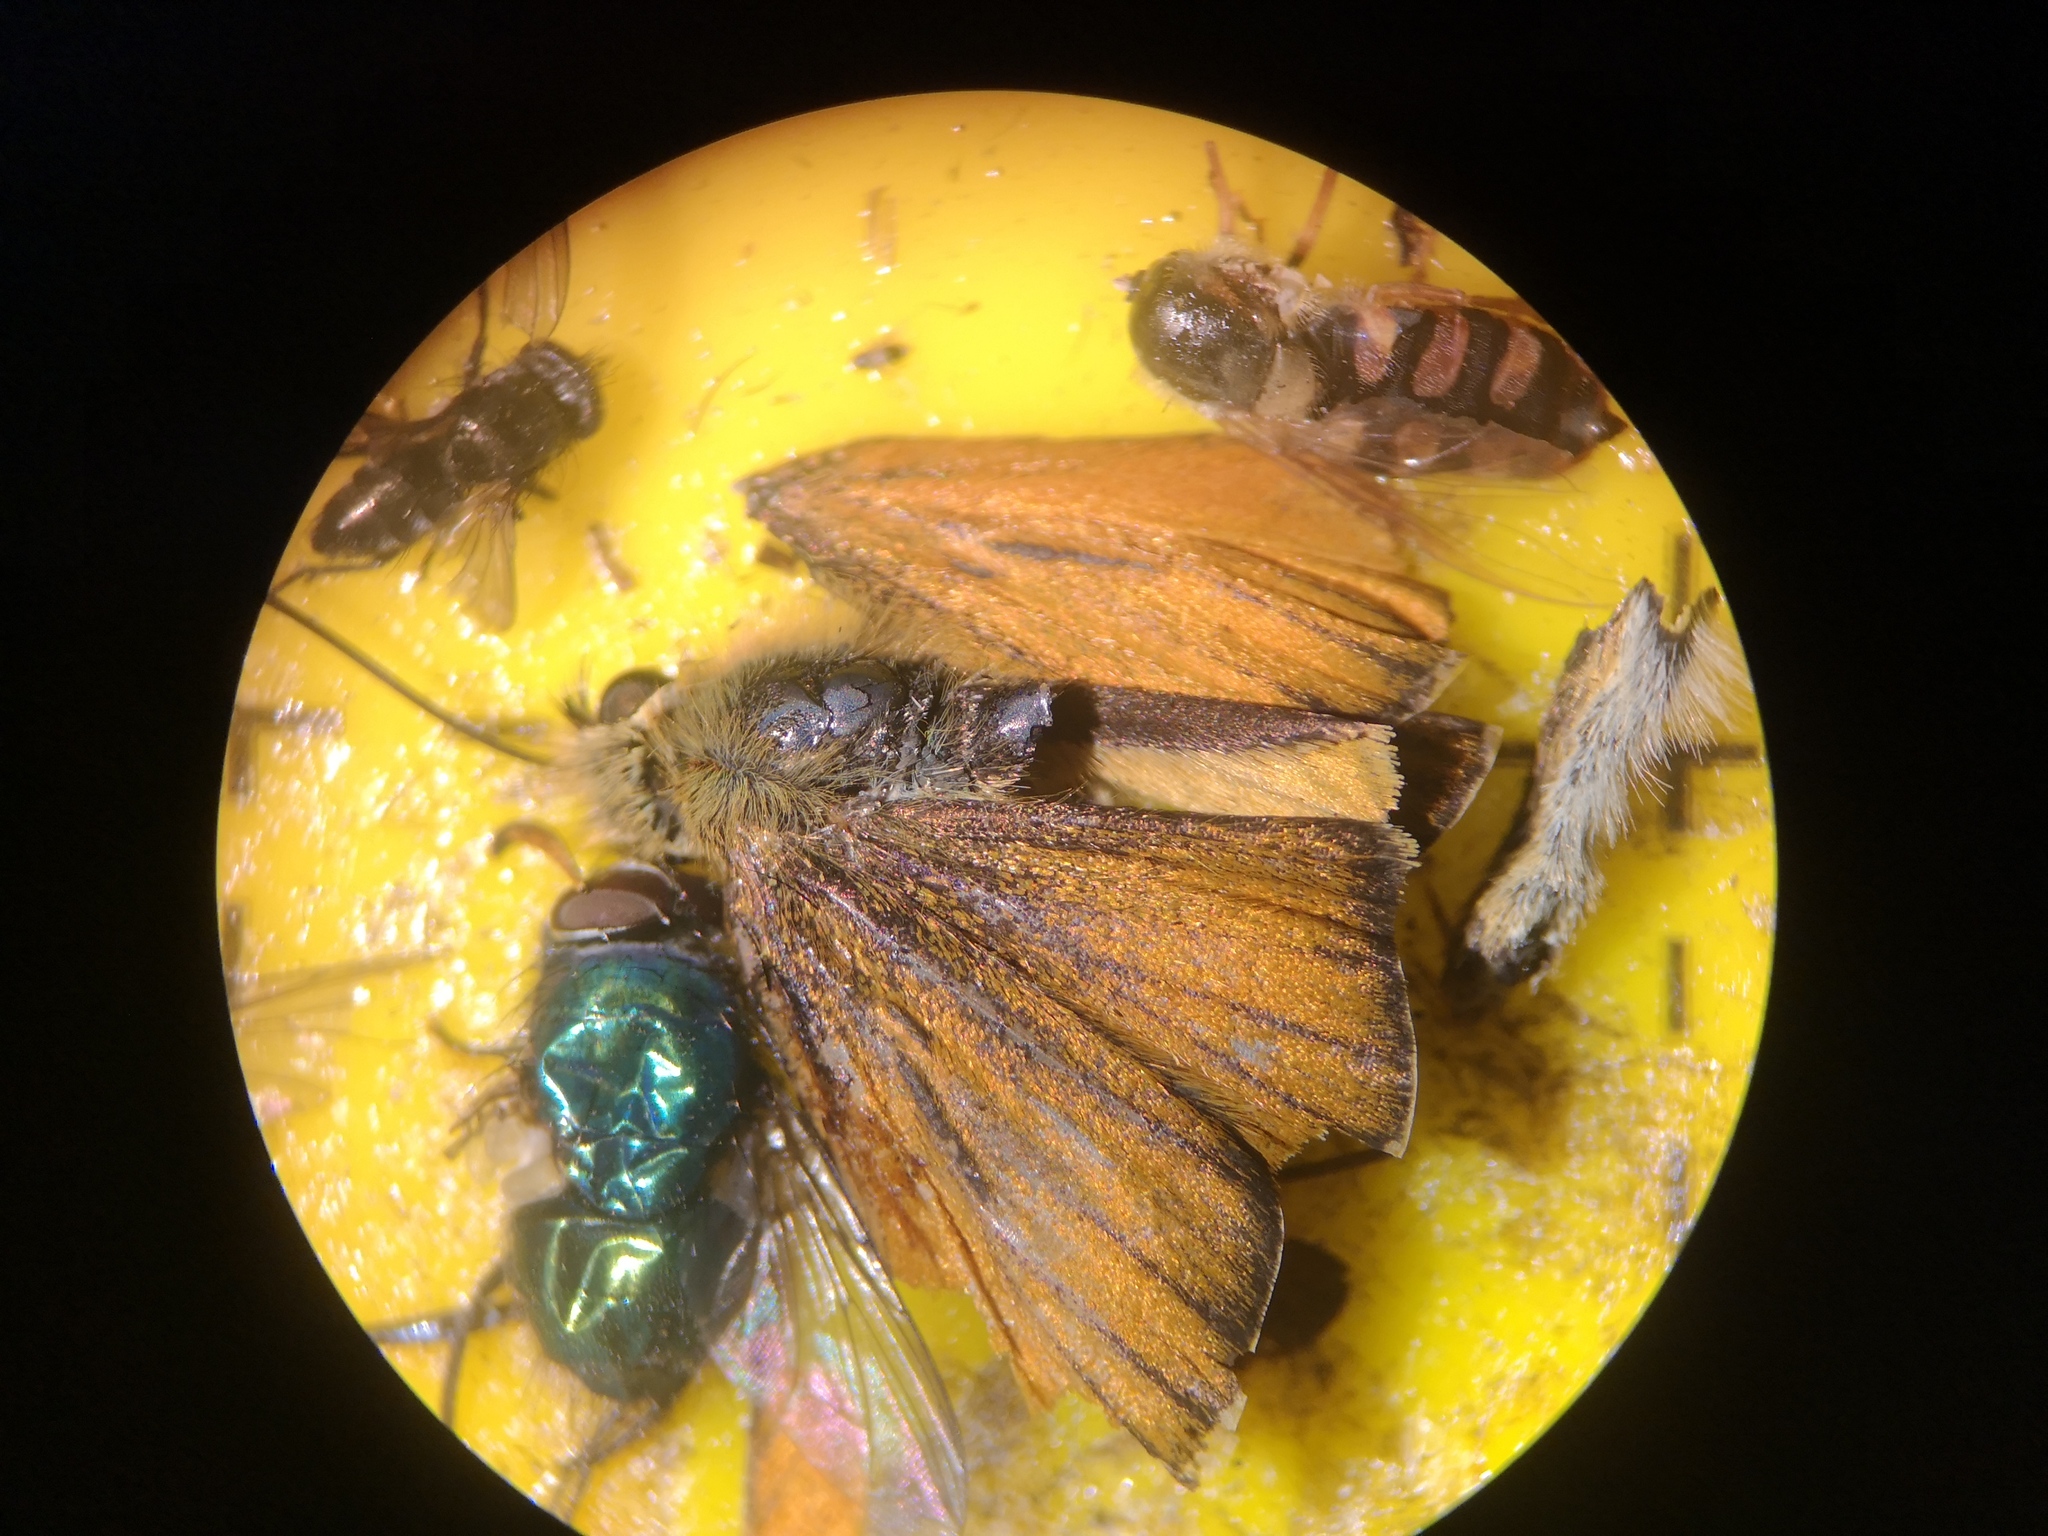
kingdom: Animalia
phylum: Arthropoda
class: Insecta
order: Lepidoptera
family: Hesperiidae
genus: Thymelicus
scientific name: Thymelicus lineola
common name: Essex skipper
